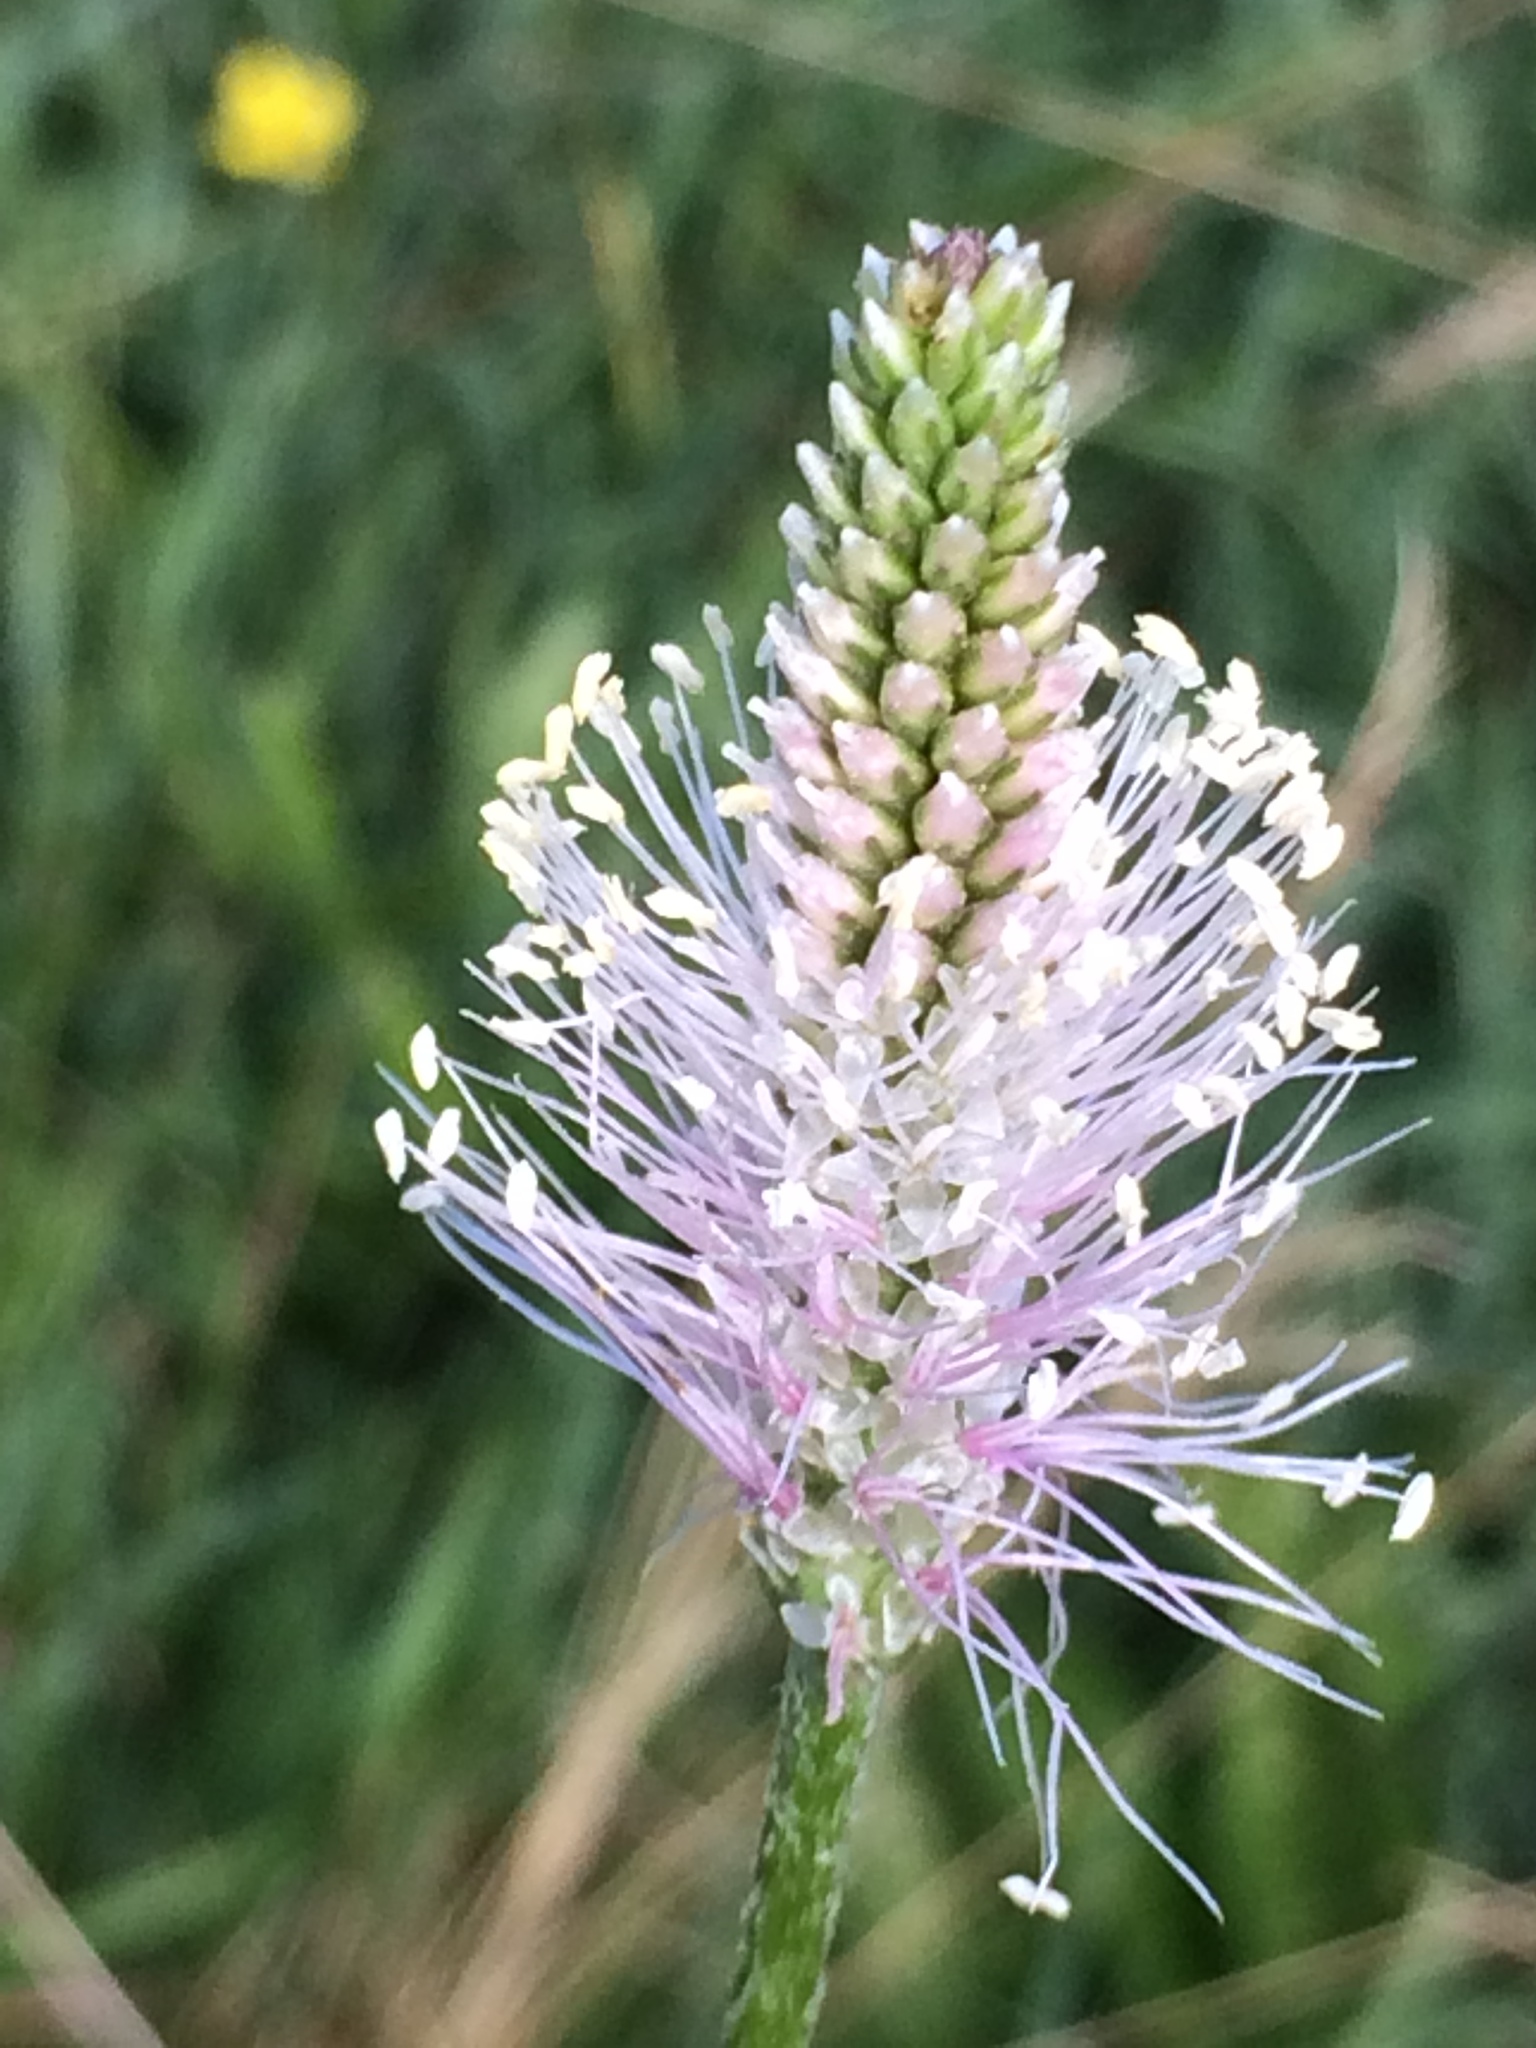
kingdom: Plantae
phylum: Tracheophyta
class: Magnoliopsida
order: Lamiales
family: Plantaginaceae
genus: Plantago
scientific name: Plantago media
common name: Hoary plantain
